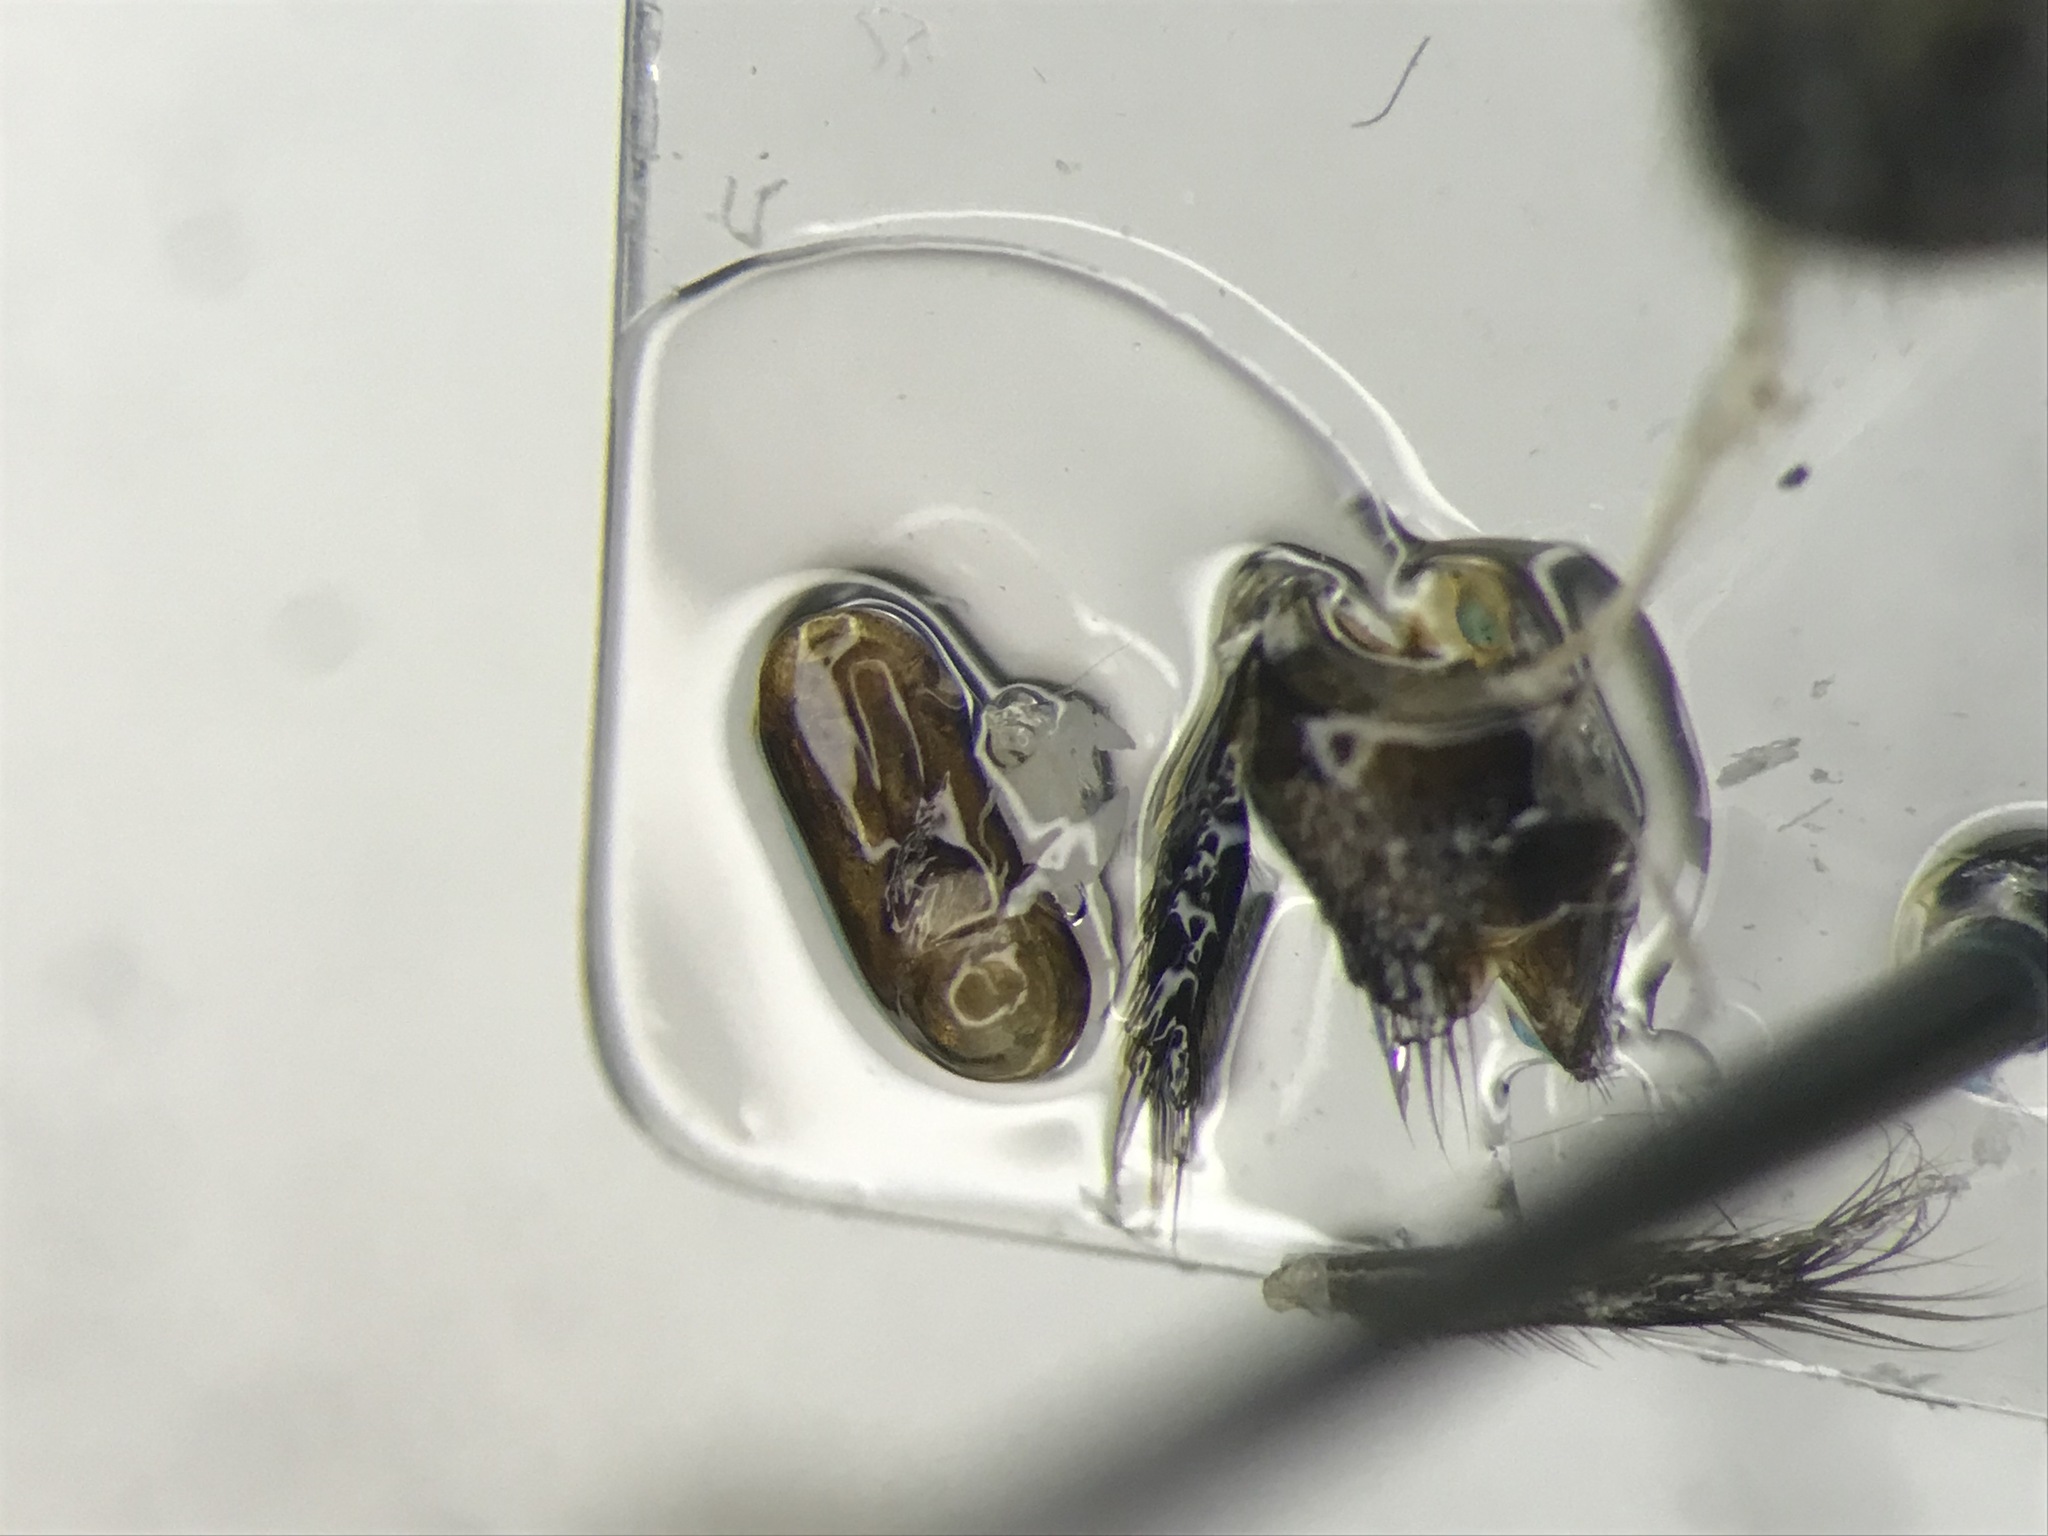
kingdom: Animalia
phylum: Arthropoda
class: Insecta
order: Coleoptera
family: Staphylinidae
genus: Platydracus
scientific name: Platydracus viridanus
